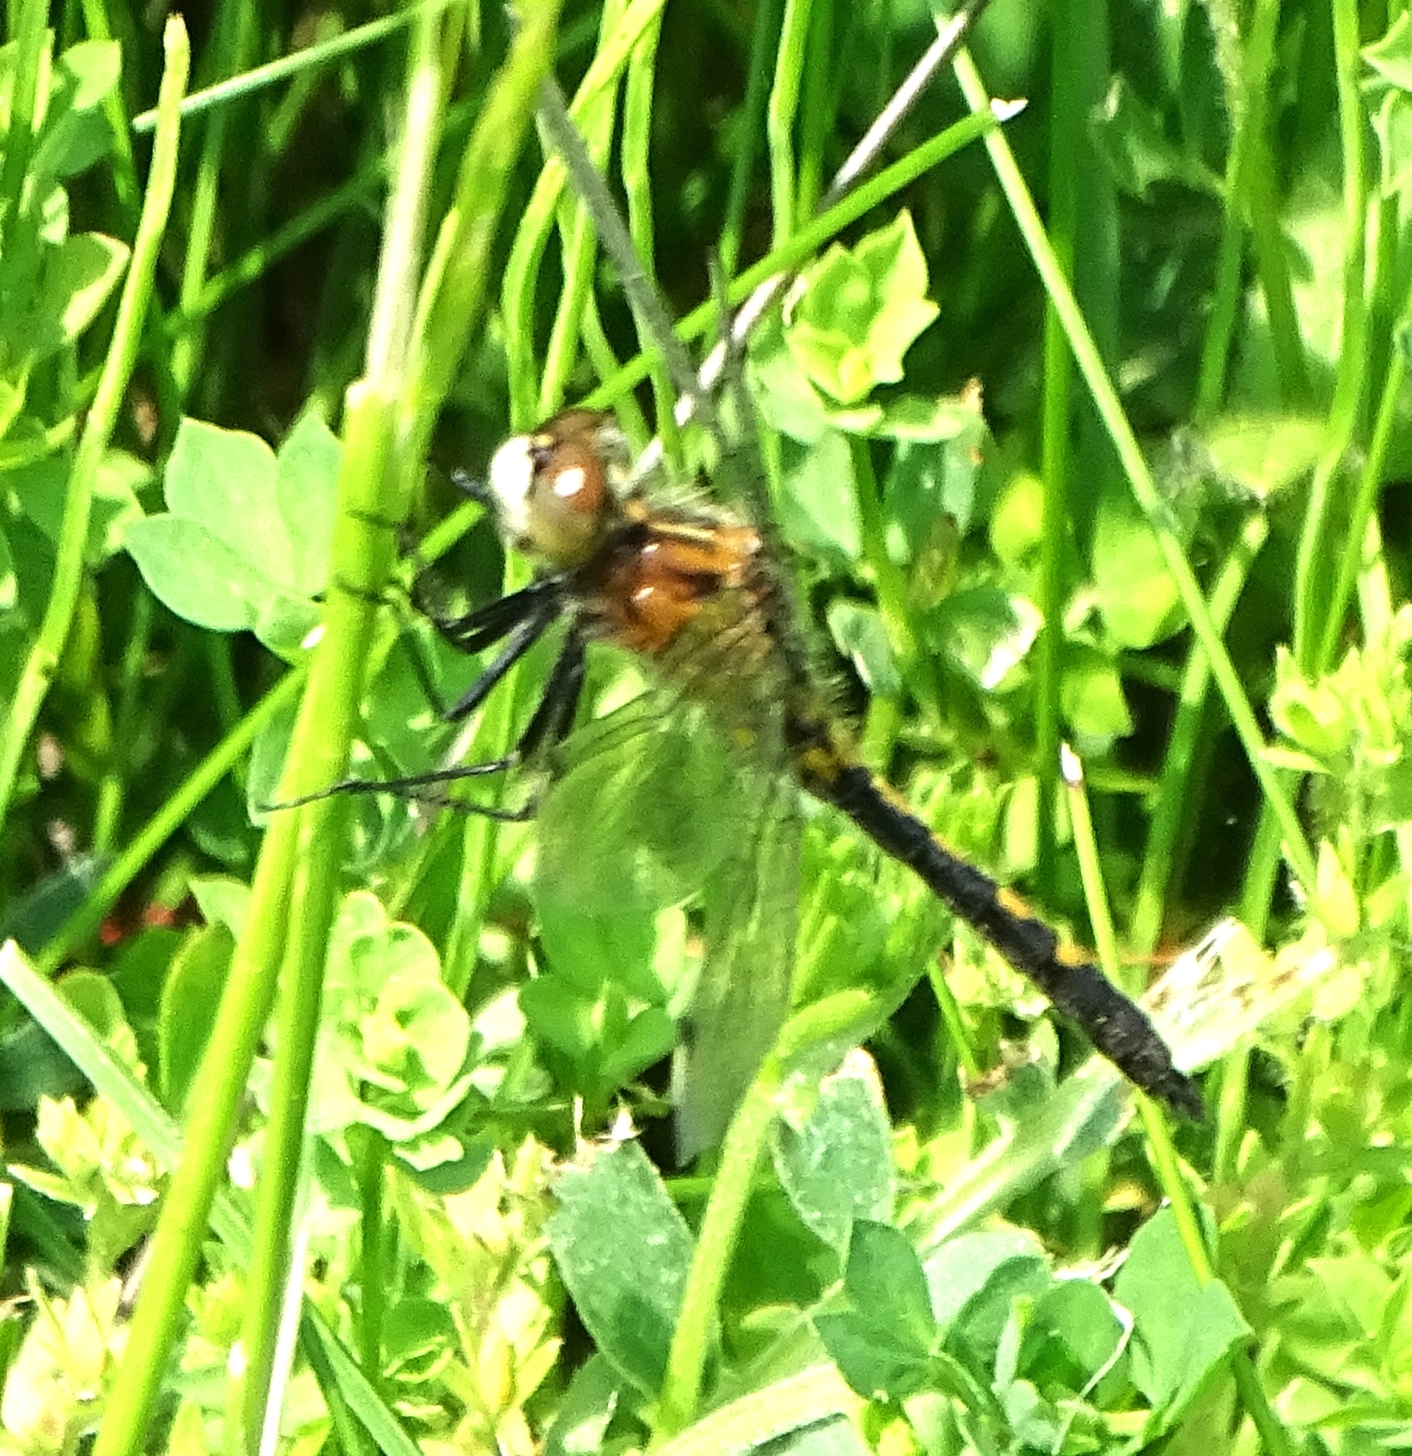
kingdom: Animalia
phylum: Arthropoda
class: Insecta
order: Odonata
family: Libellulidae
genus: Leucorrhinia
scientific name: Leucorrhinia intacta
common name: Dot-tailed whiteface
